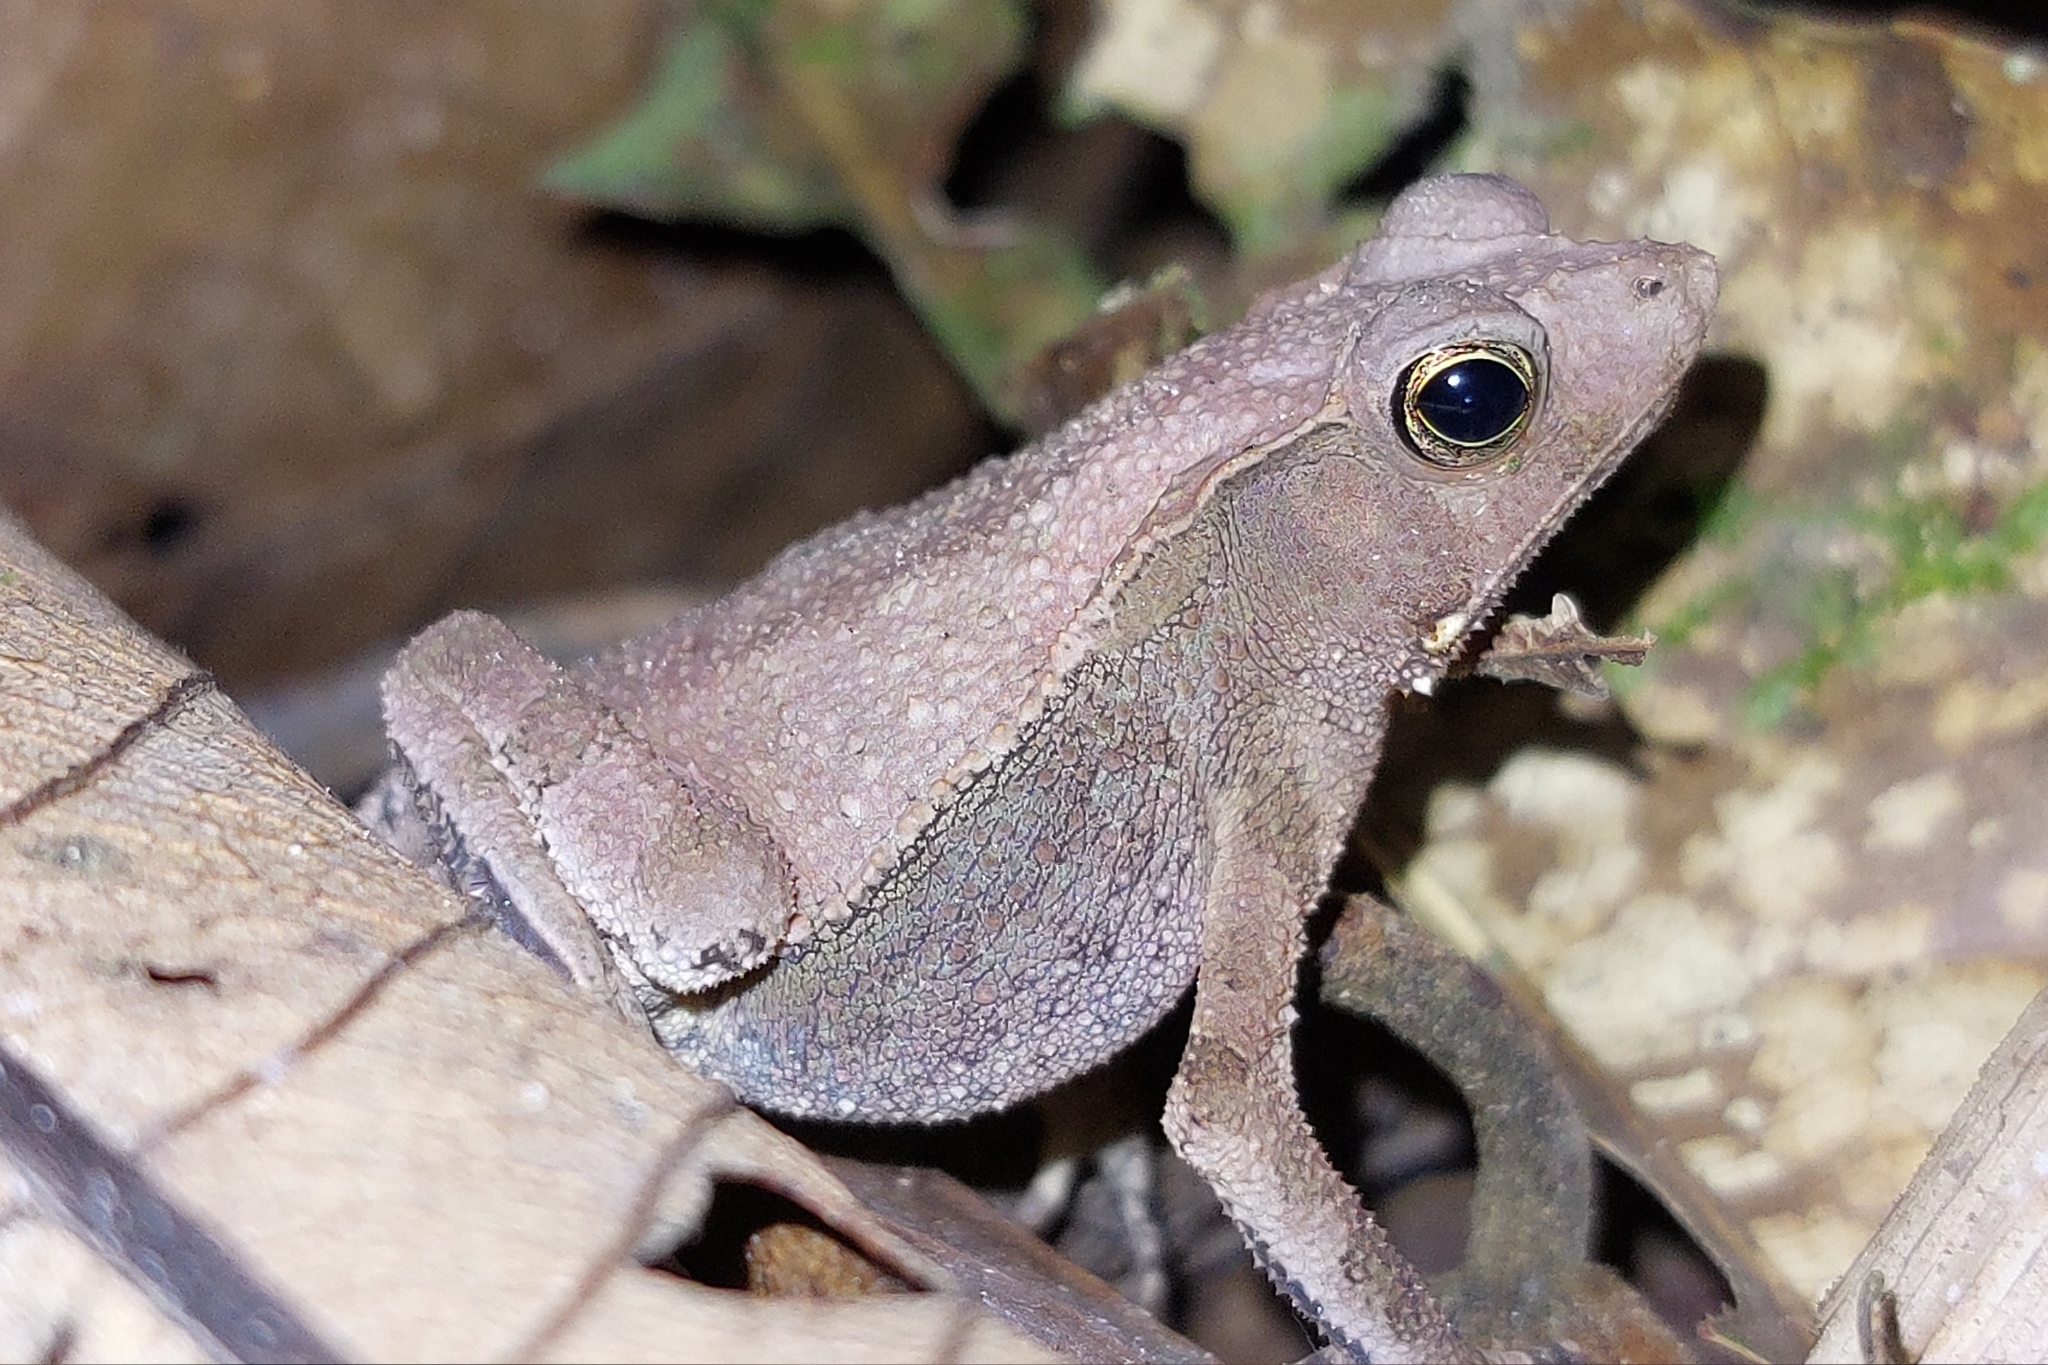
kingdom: Animalia
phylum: Chordata
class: Amphibia
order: Anura
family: Bufonidae
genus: Rhinella
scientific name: Rhinella margaritifera
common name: Mitred toad
